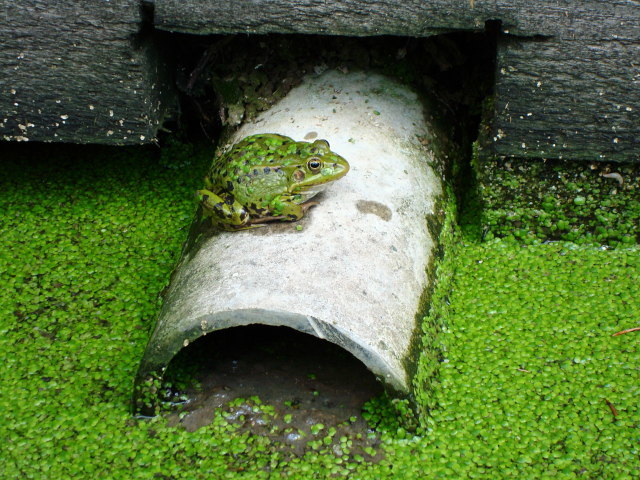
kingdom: Animalia
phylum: Chordata
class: Amphibia
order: Anura
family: Ranidae
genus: Pelophylax
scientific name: Pelophylax
